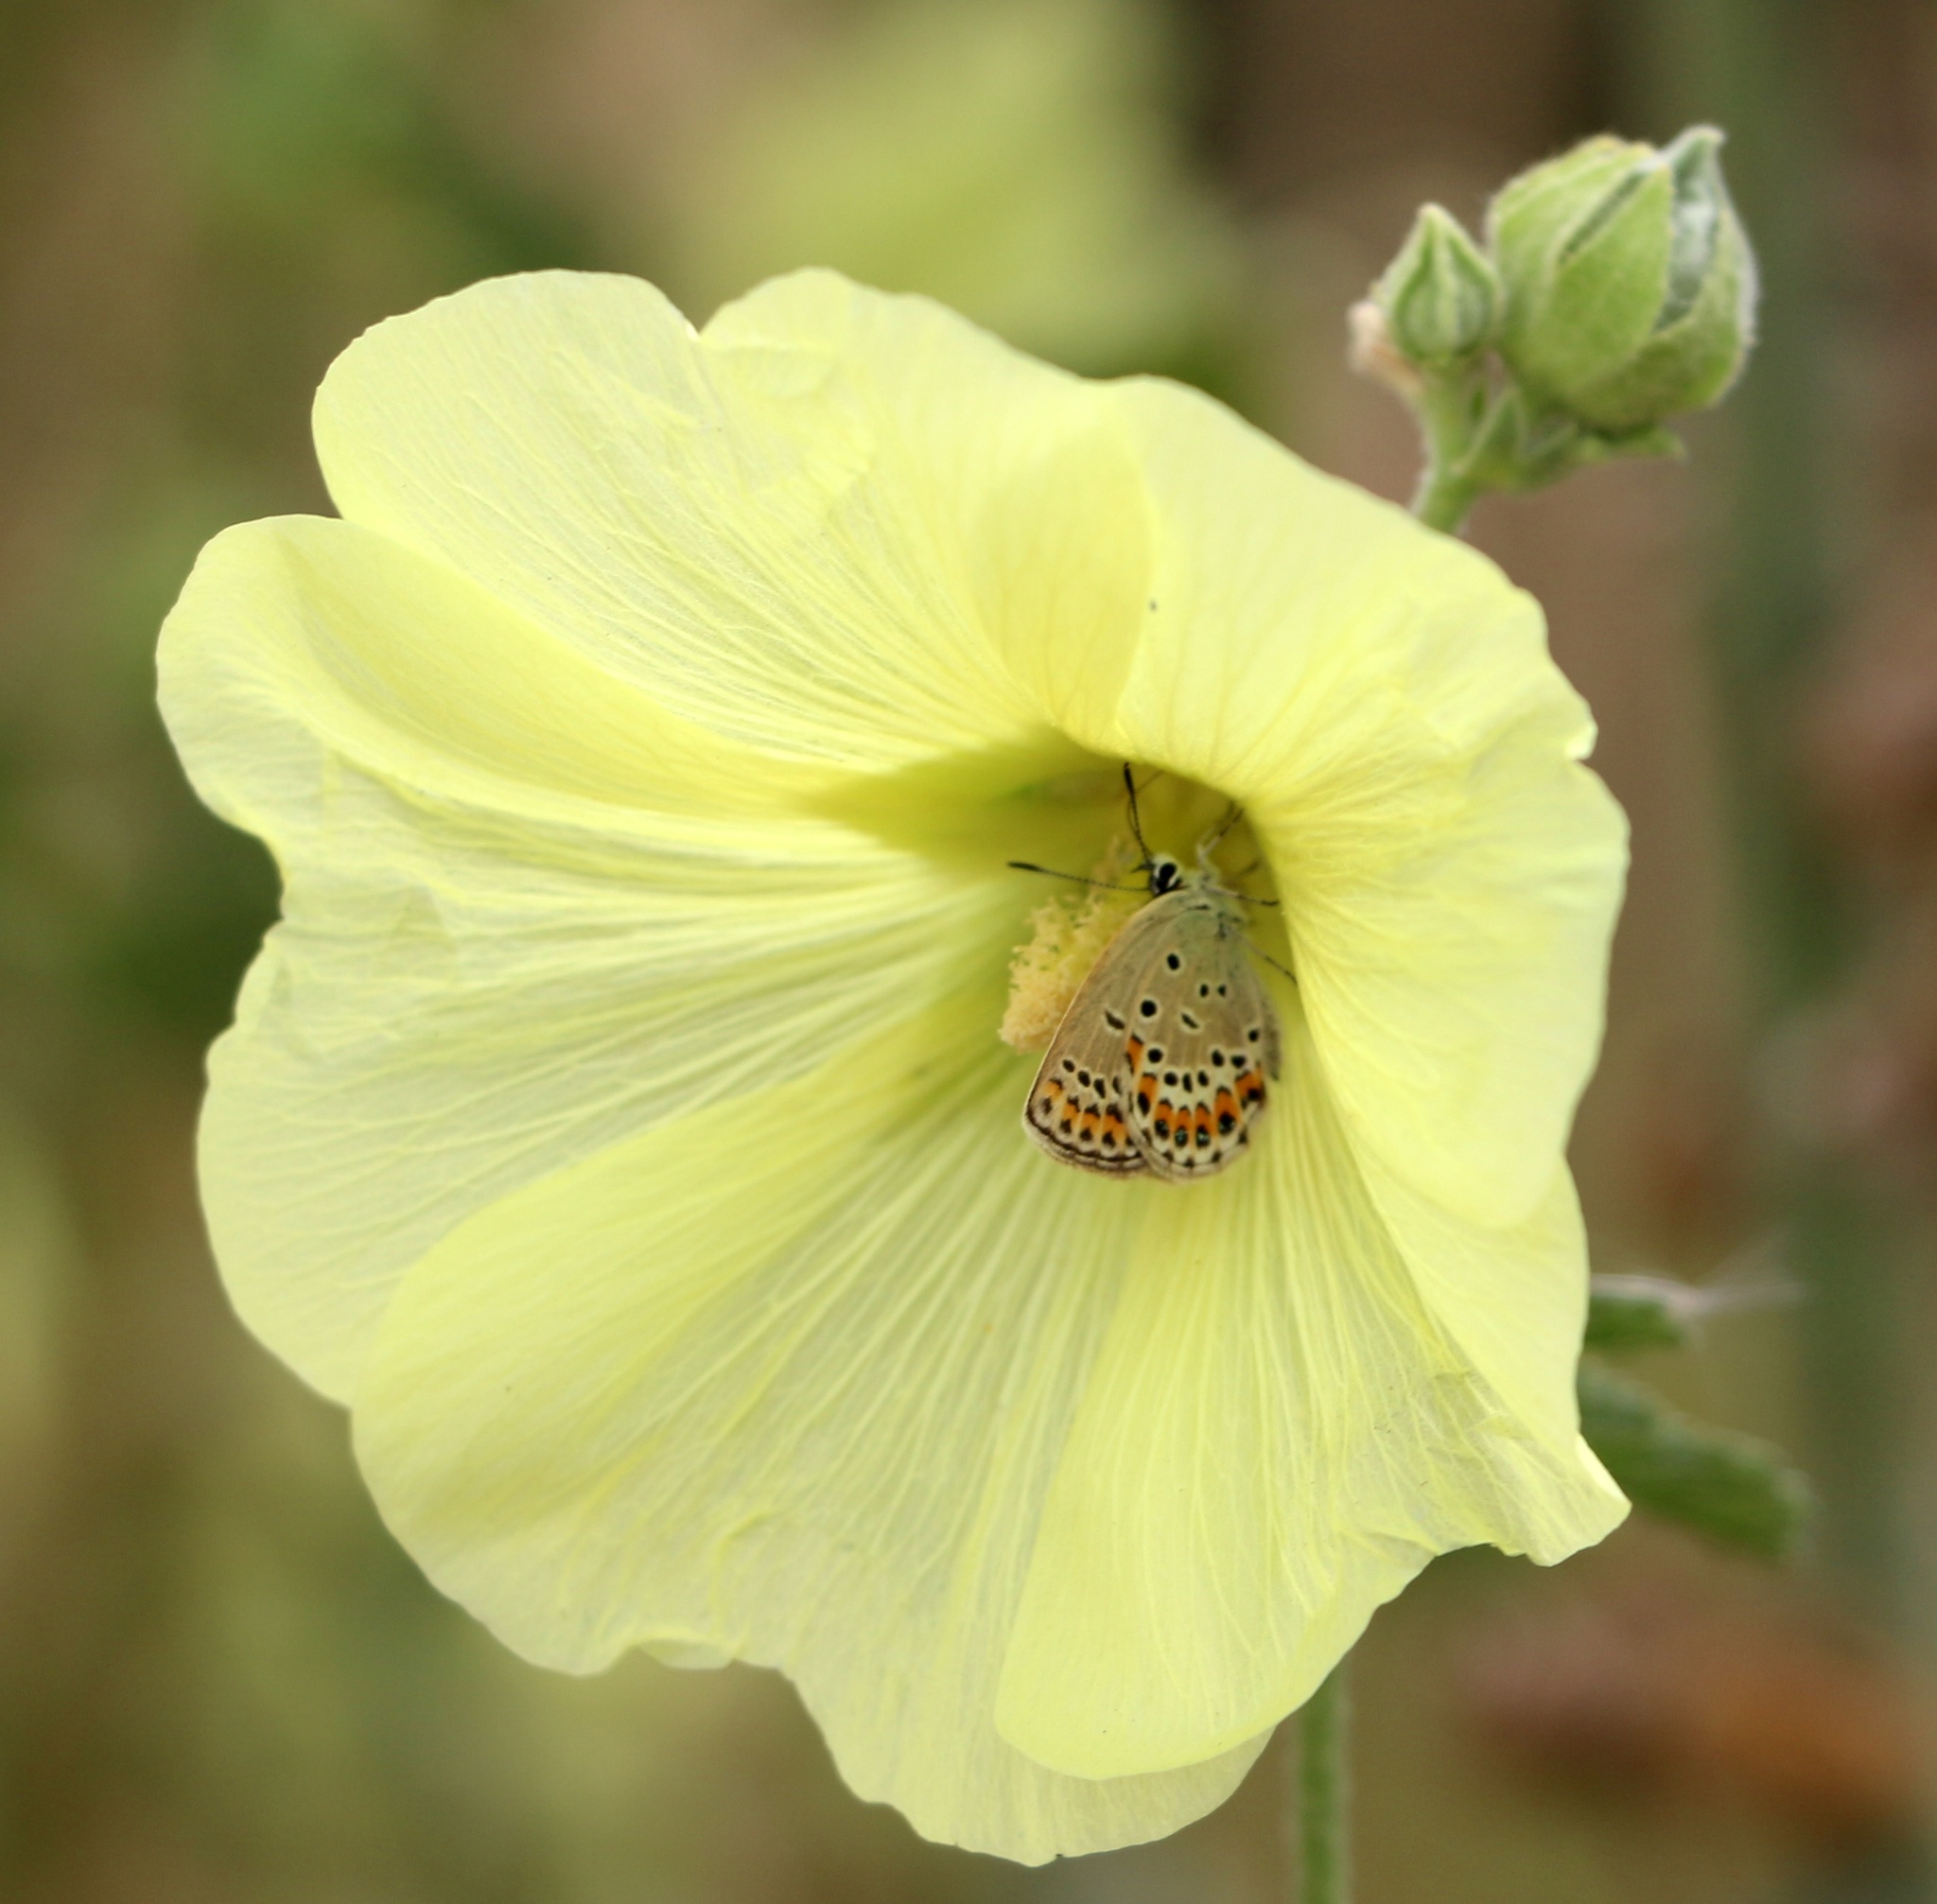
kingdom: Plantae
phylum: Tracheophyta
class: Magnoliopsida
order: Malvales
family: Malvaceae
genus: Alcea
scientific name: Alcea rugosa
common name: Russian hollyhock
